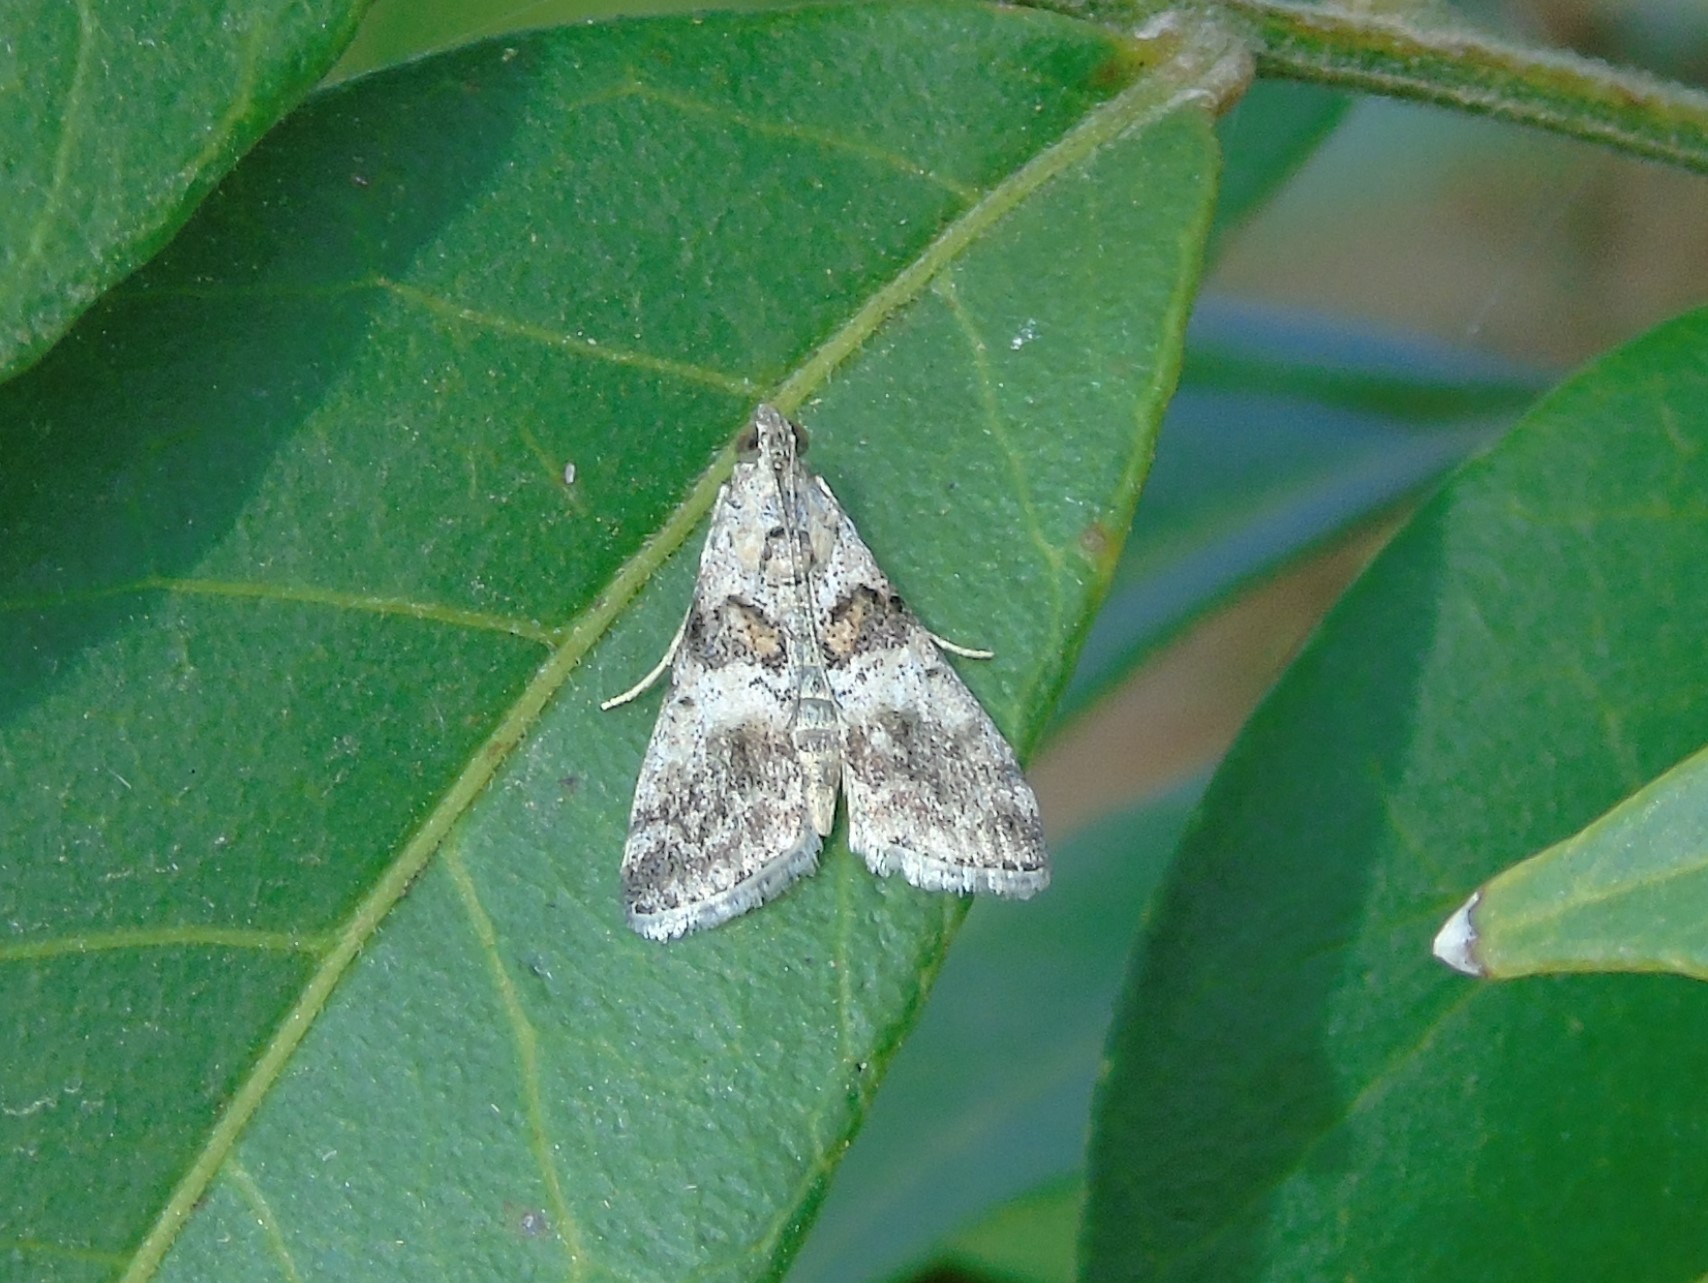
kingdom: Animalia
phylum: Arthropoda
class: Insecta
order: Lepidoptera
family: Pyralidae
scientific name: Pyralidae
